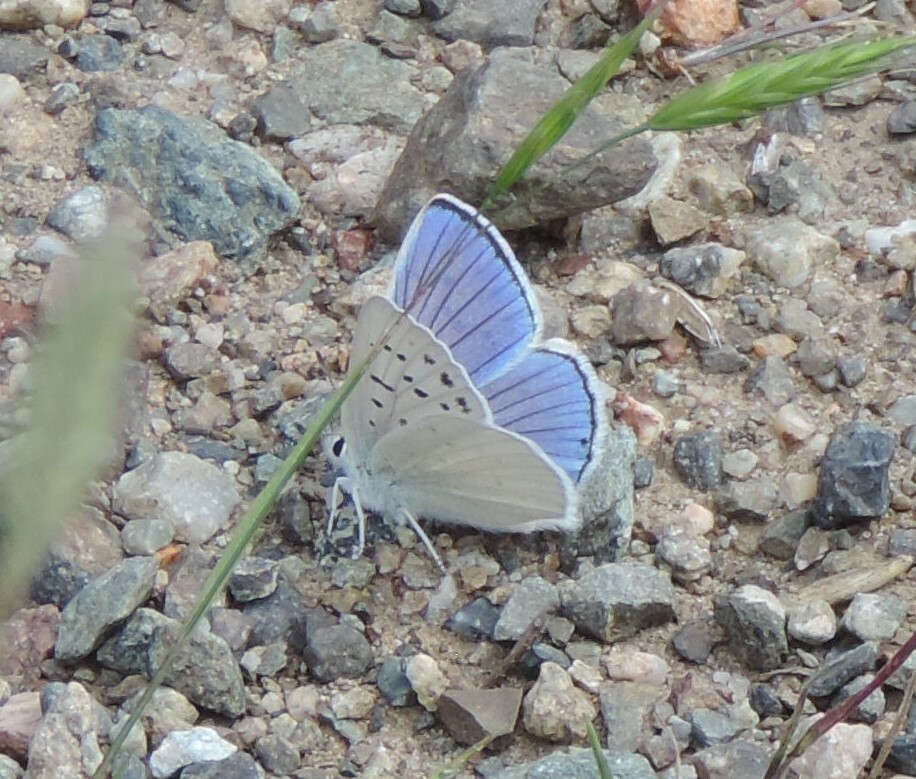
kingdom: Animalia
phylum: Arthropoda
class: Insecta
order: Lepidoptera
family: Lycaenidae
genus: Tharsalea
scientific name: Tharsalea heteronea
